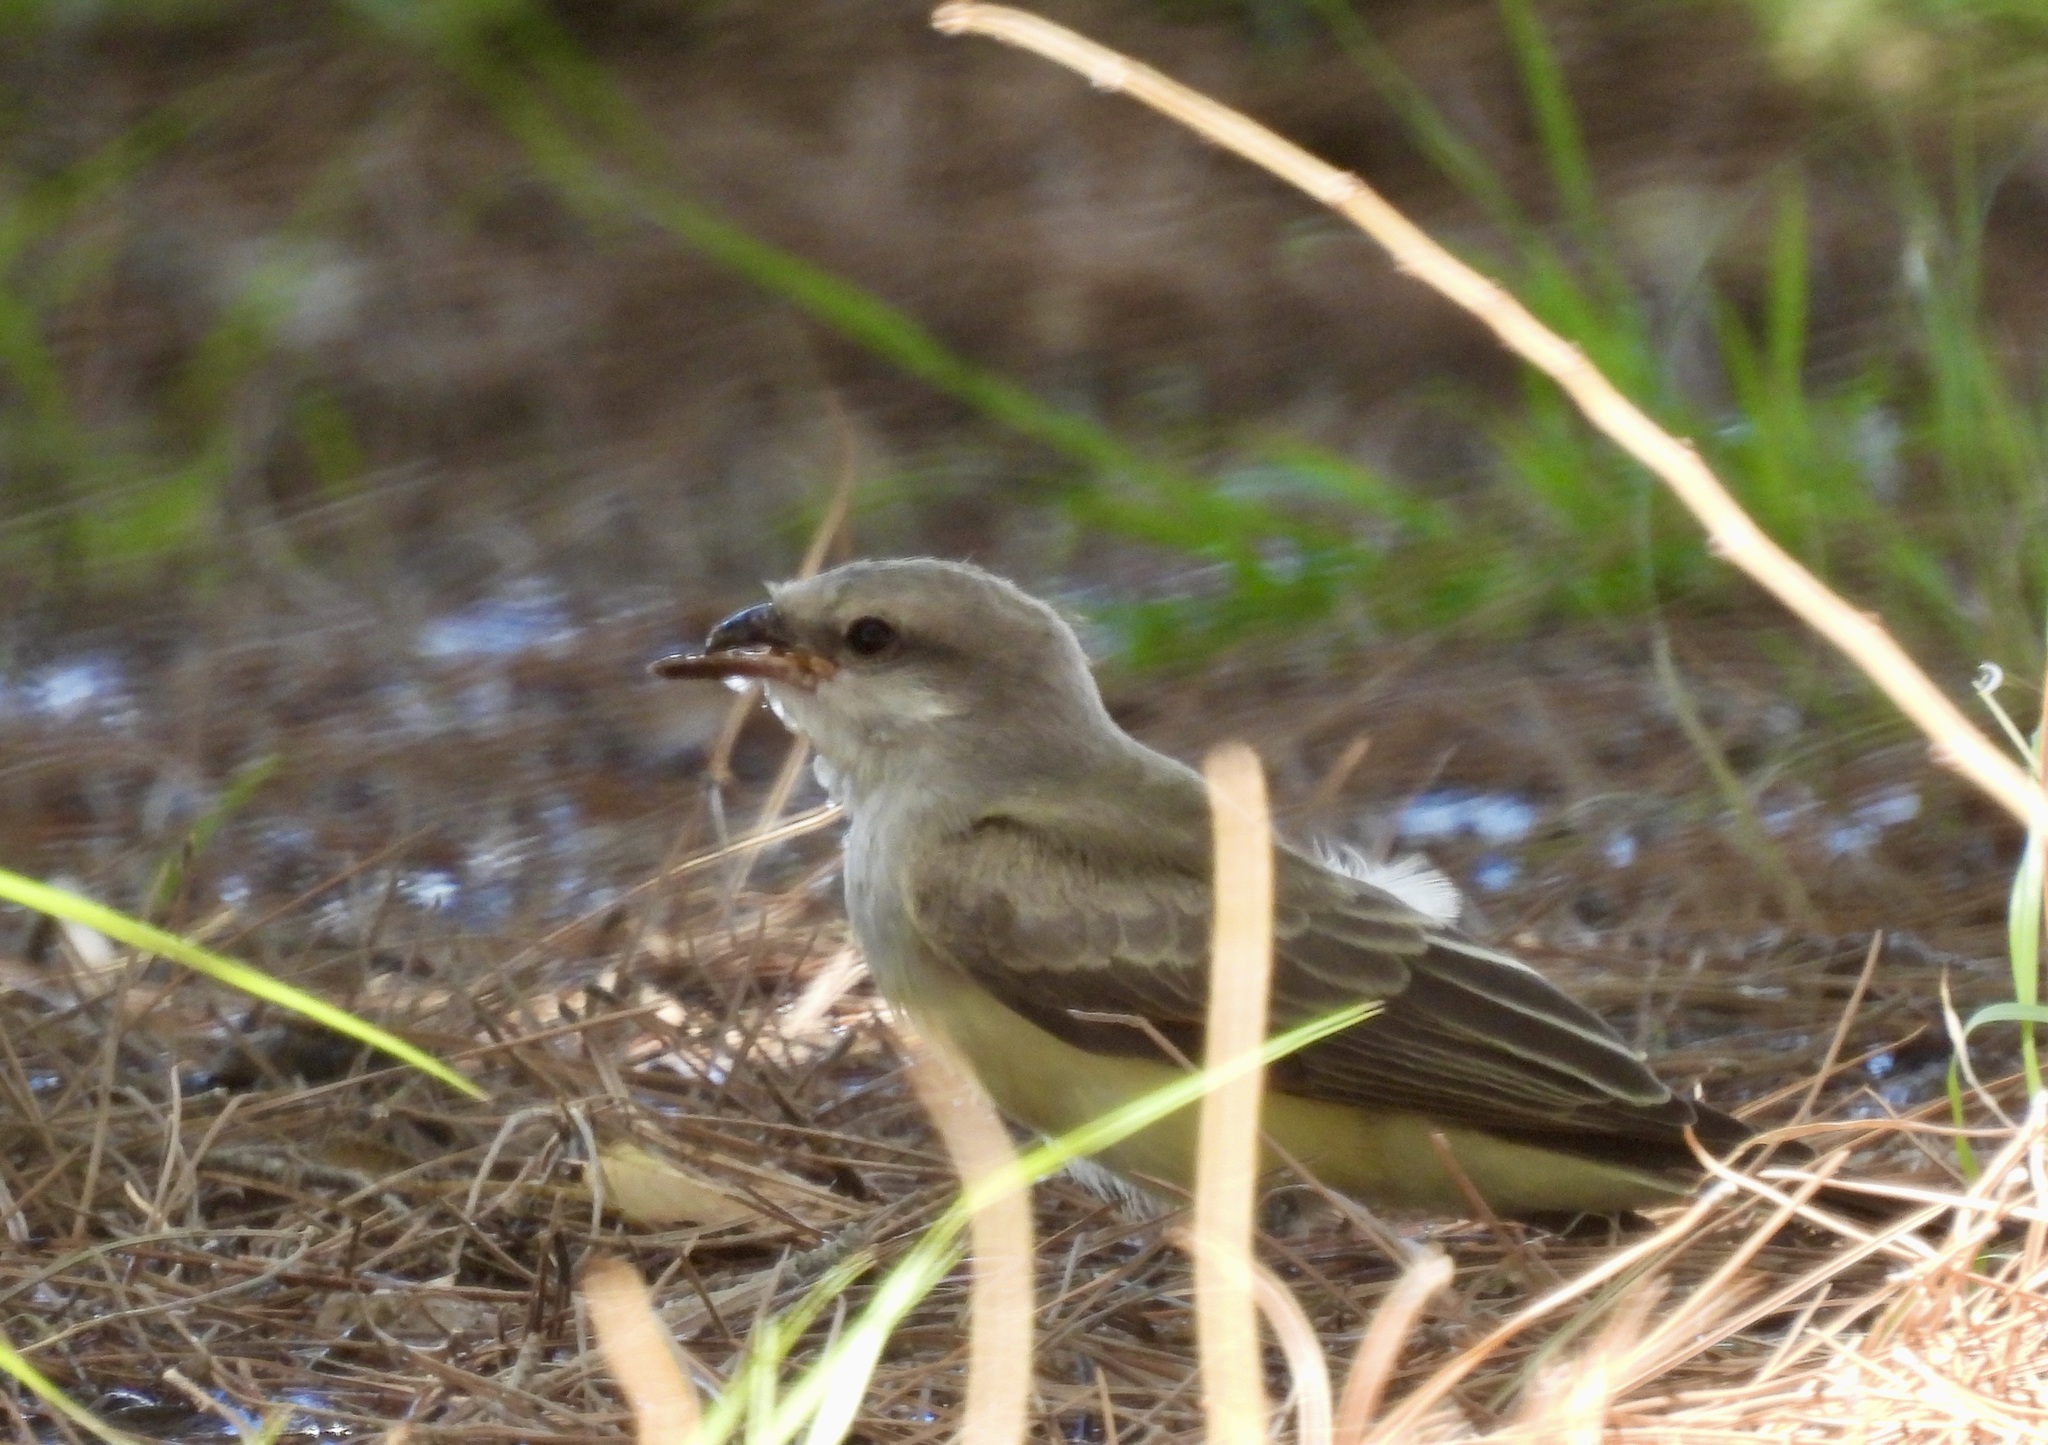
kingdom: Animalia
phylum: Chordata
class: Aves
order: Passeriformes
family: Tyrannidae
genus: Tyrannus
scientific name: Tyrannus verticalis
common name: Western kingbird
